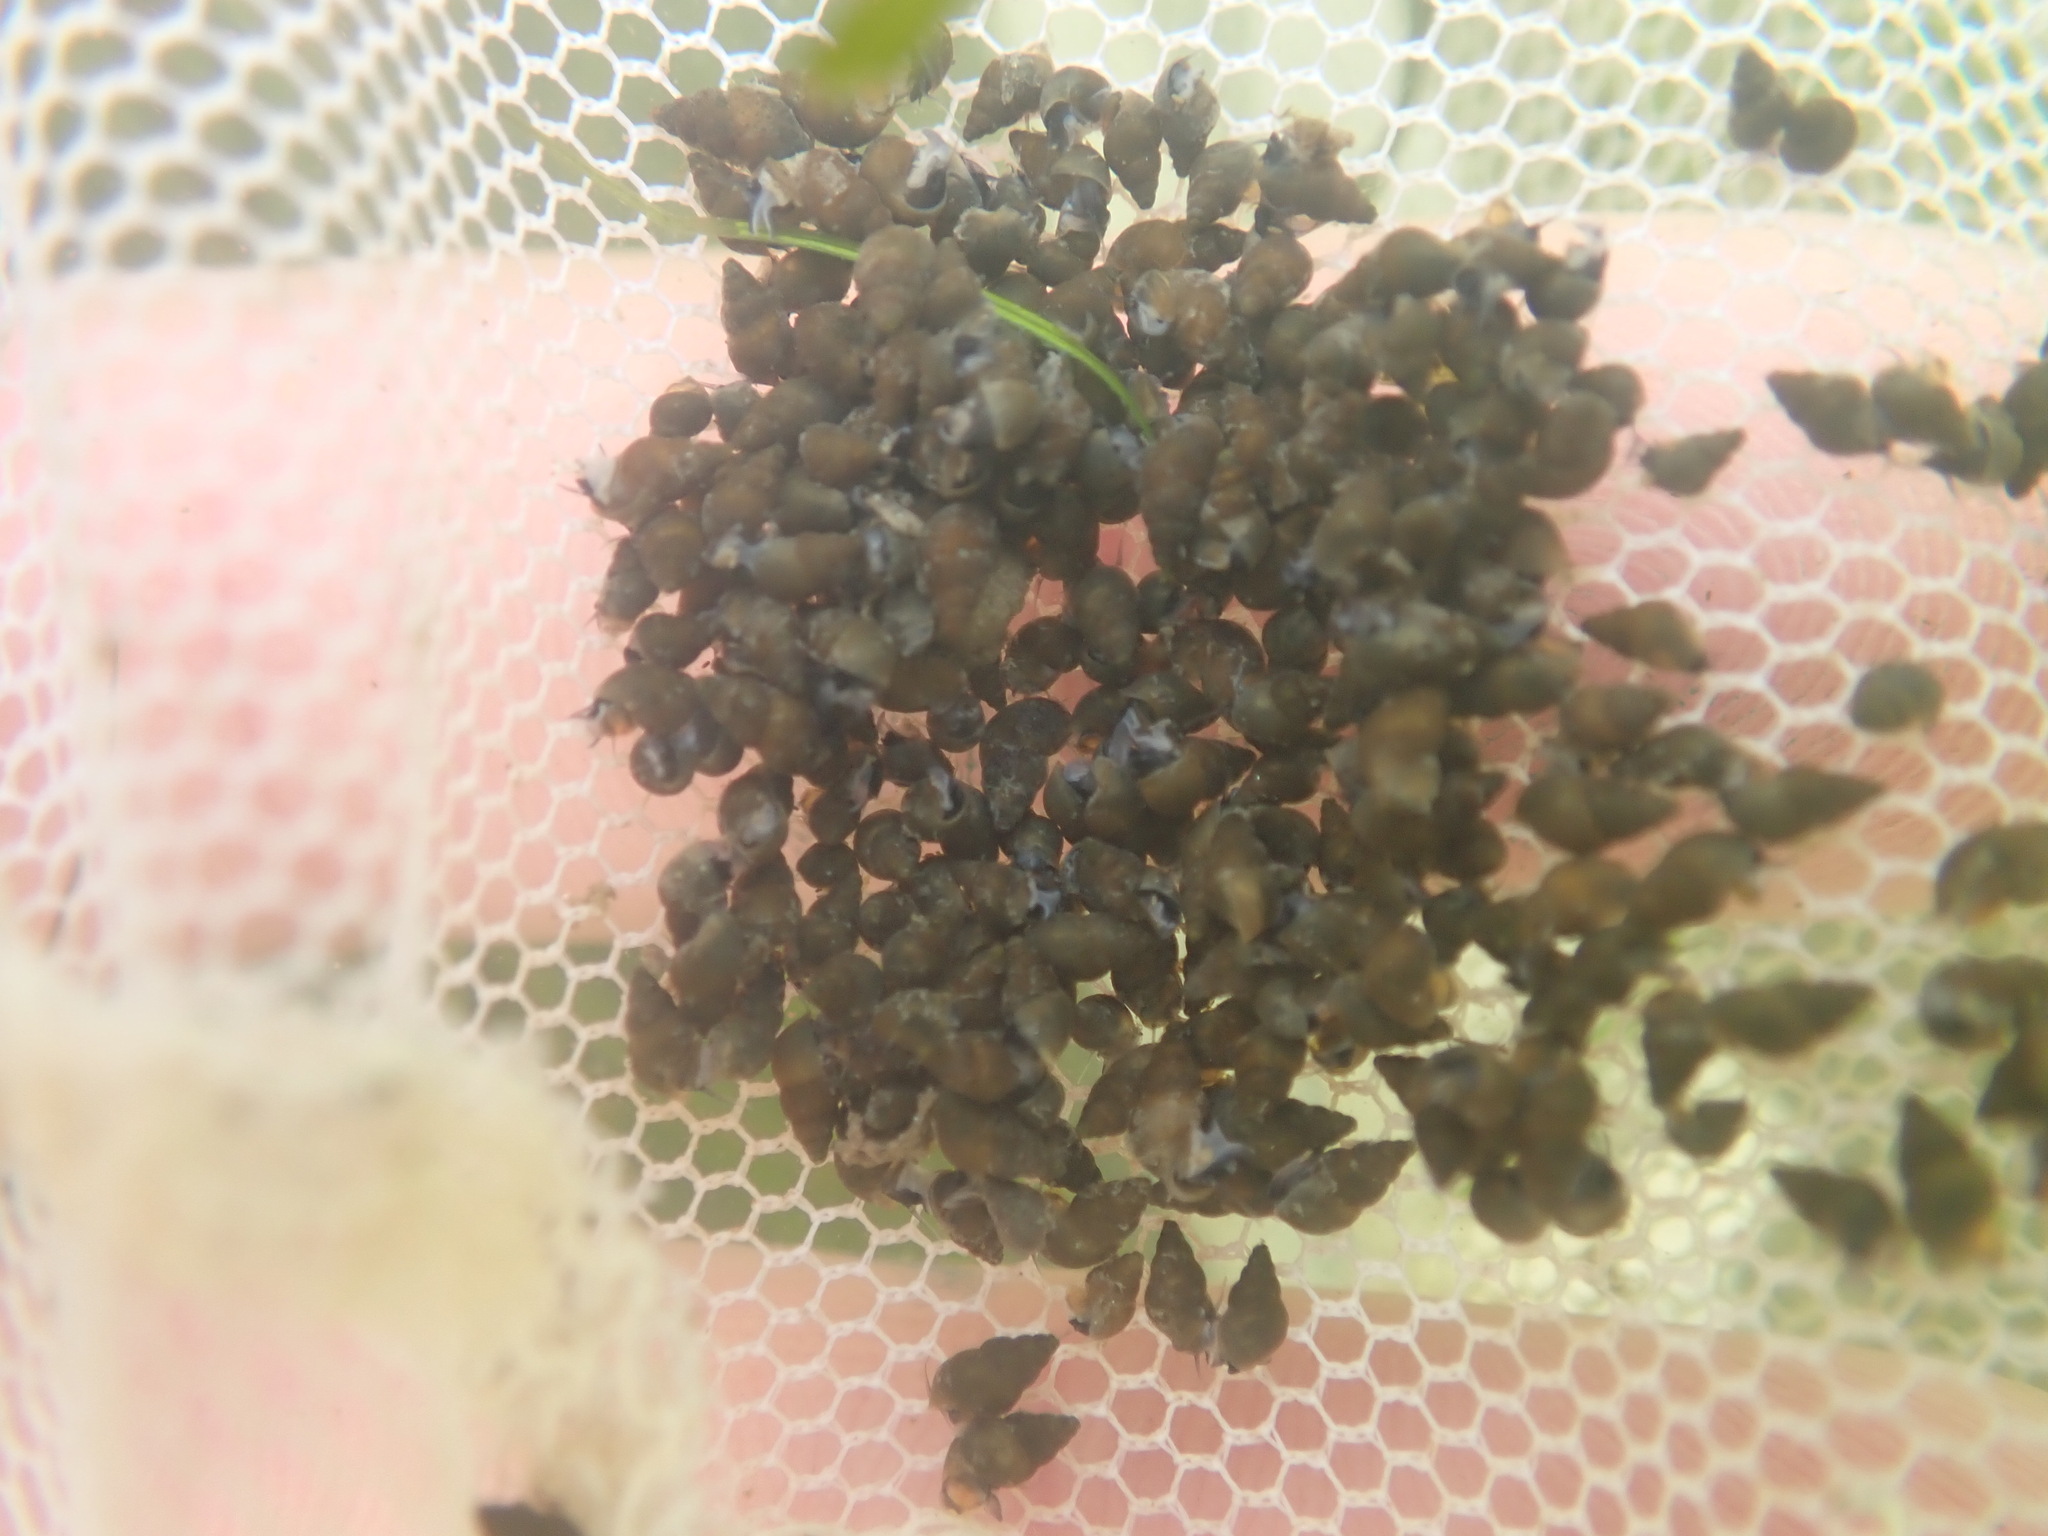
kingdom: Animalia
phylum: Mollusca
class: Gastropoda
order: Littorinimorpha
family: Tateidae
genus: Potamopyrgus
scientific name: Potamopyrgus antipodarum
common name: Jenkins' spire snail
